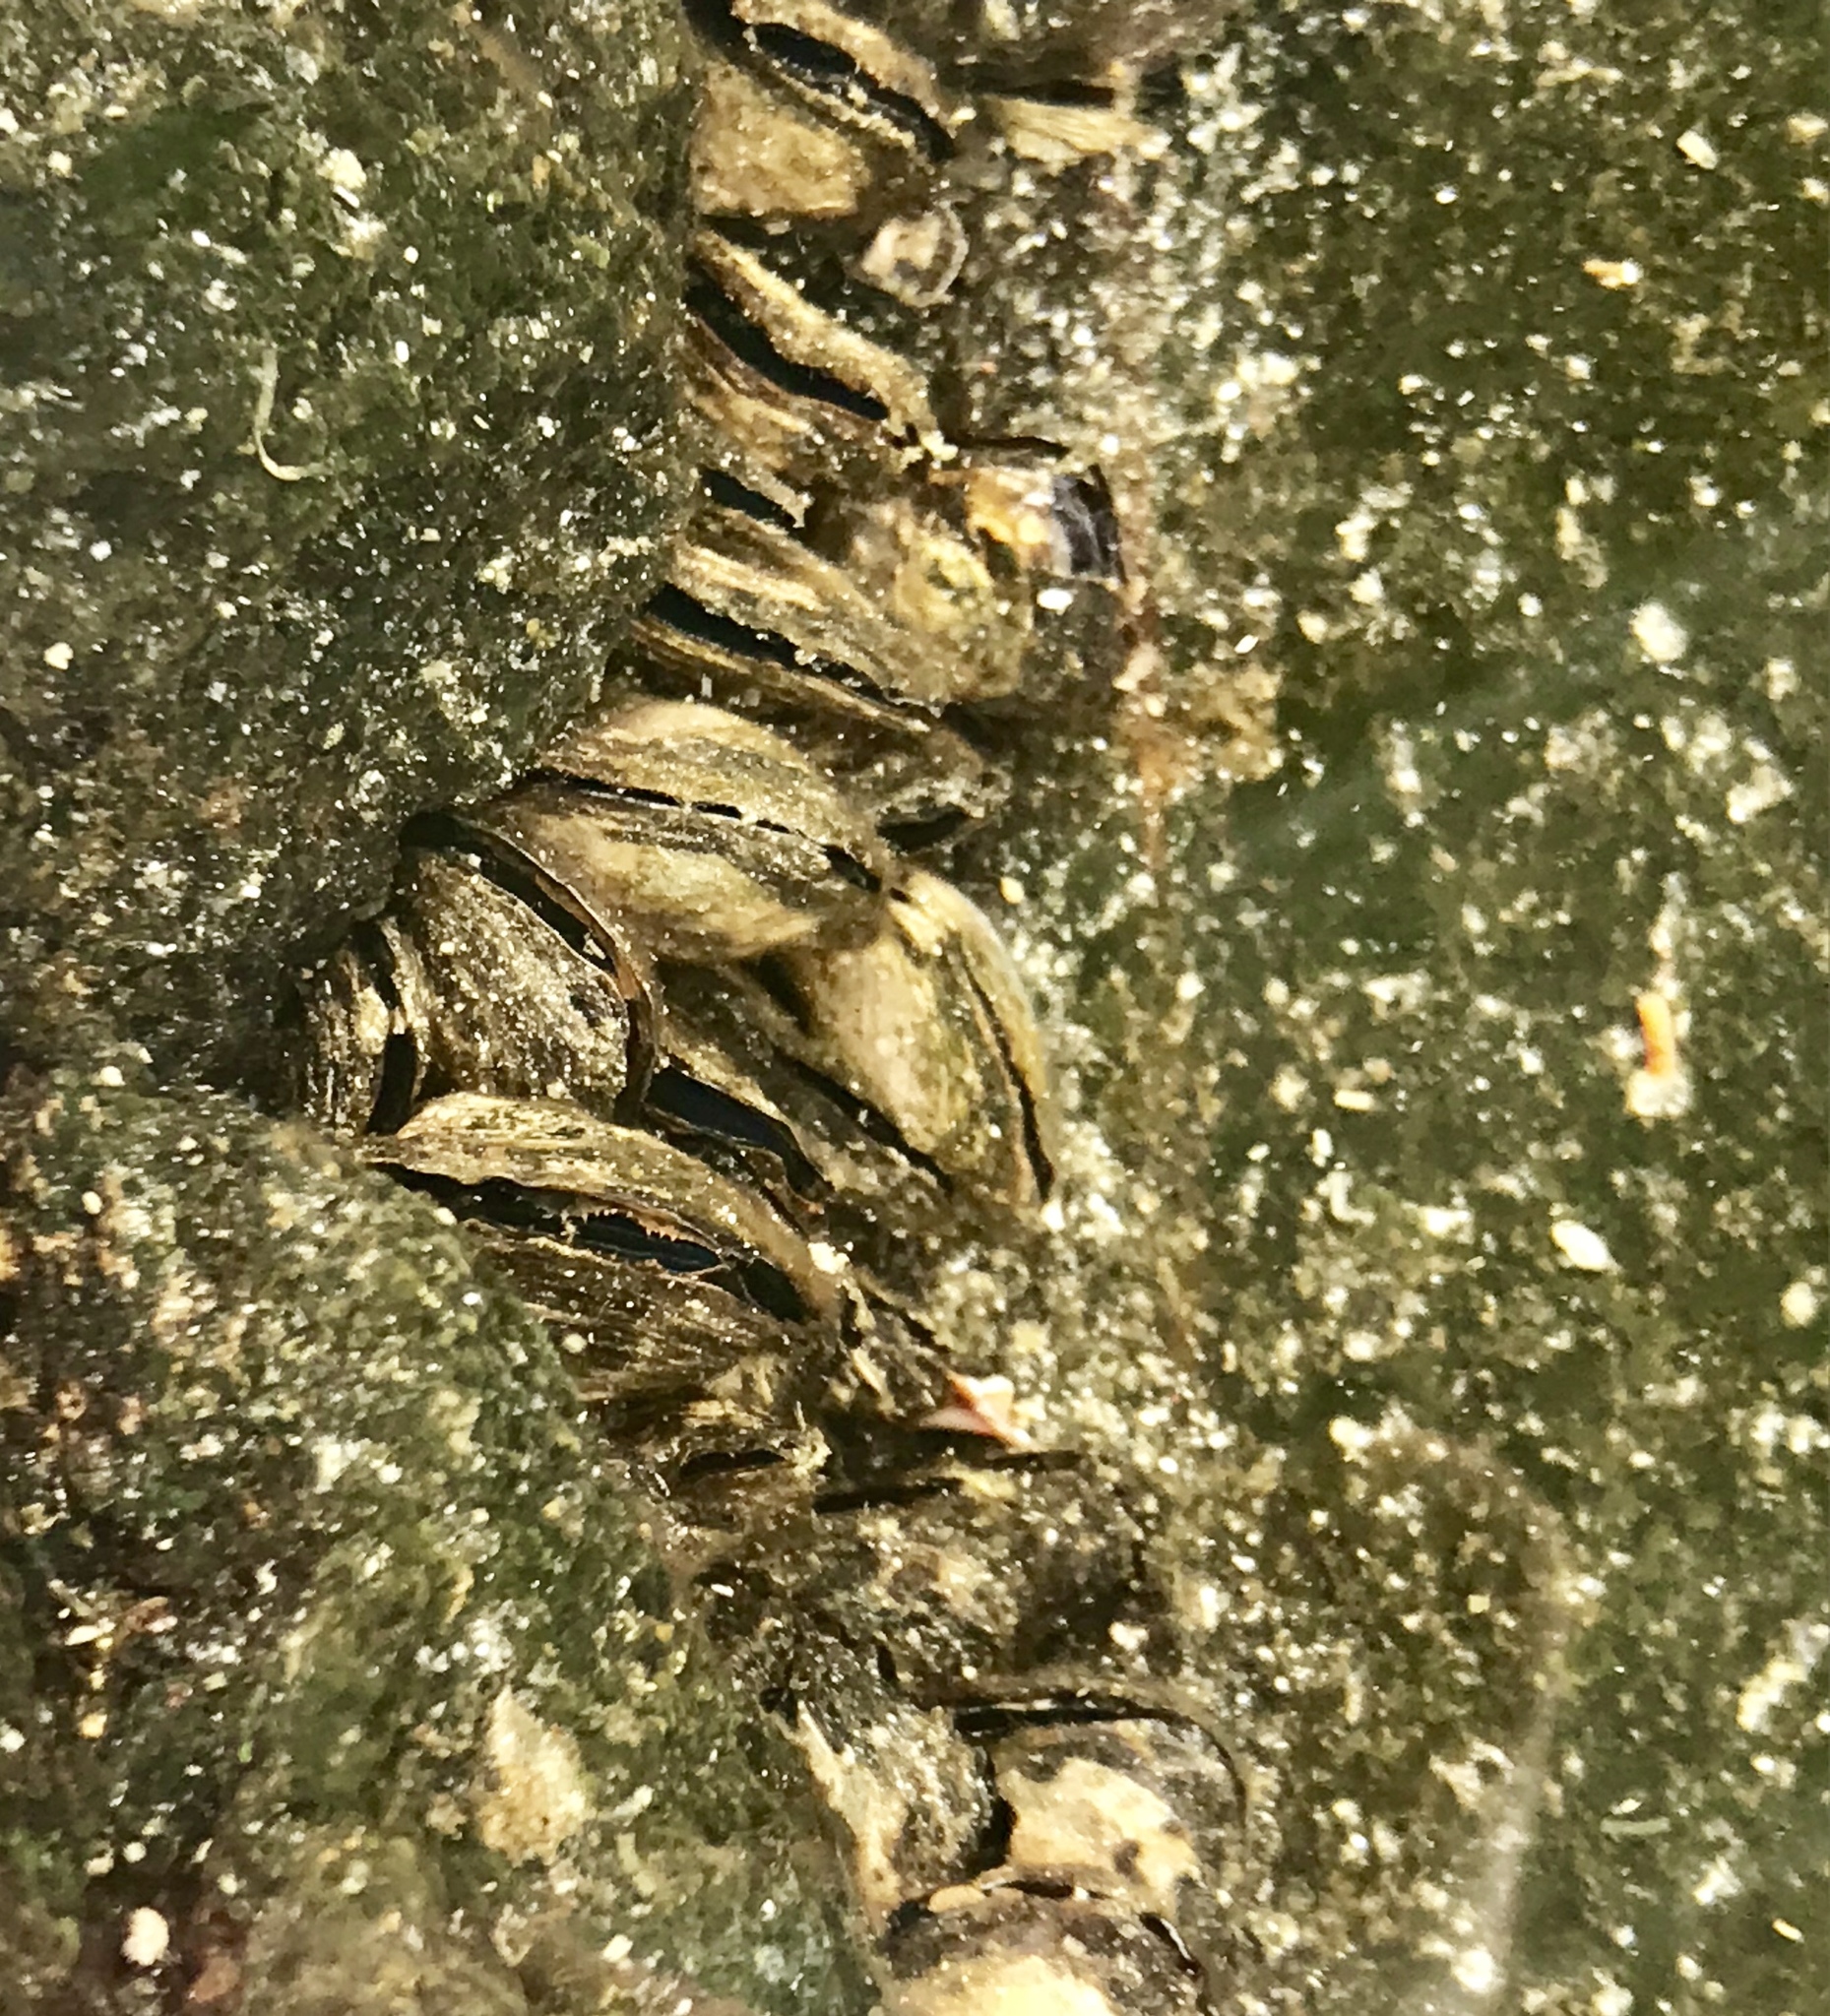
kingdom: Animalia
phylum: Mollusca
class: Bivalvia
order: Ostreida
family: Isognomonidae
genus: Isognomon
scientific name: Isognomon californicus
